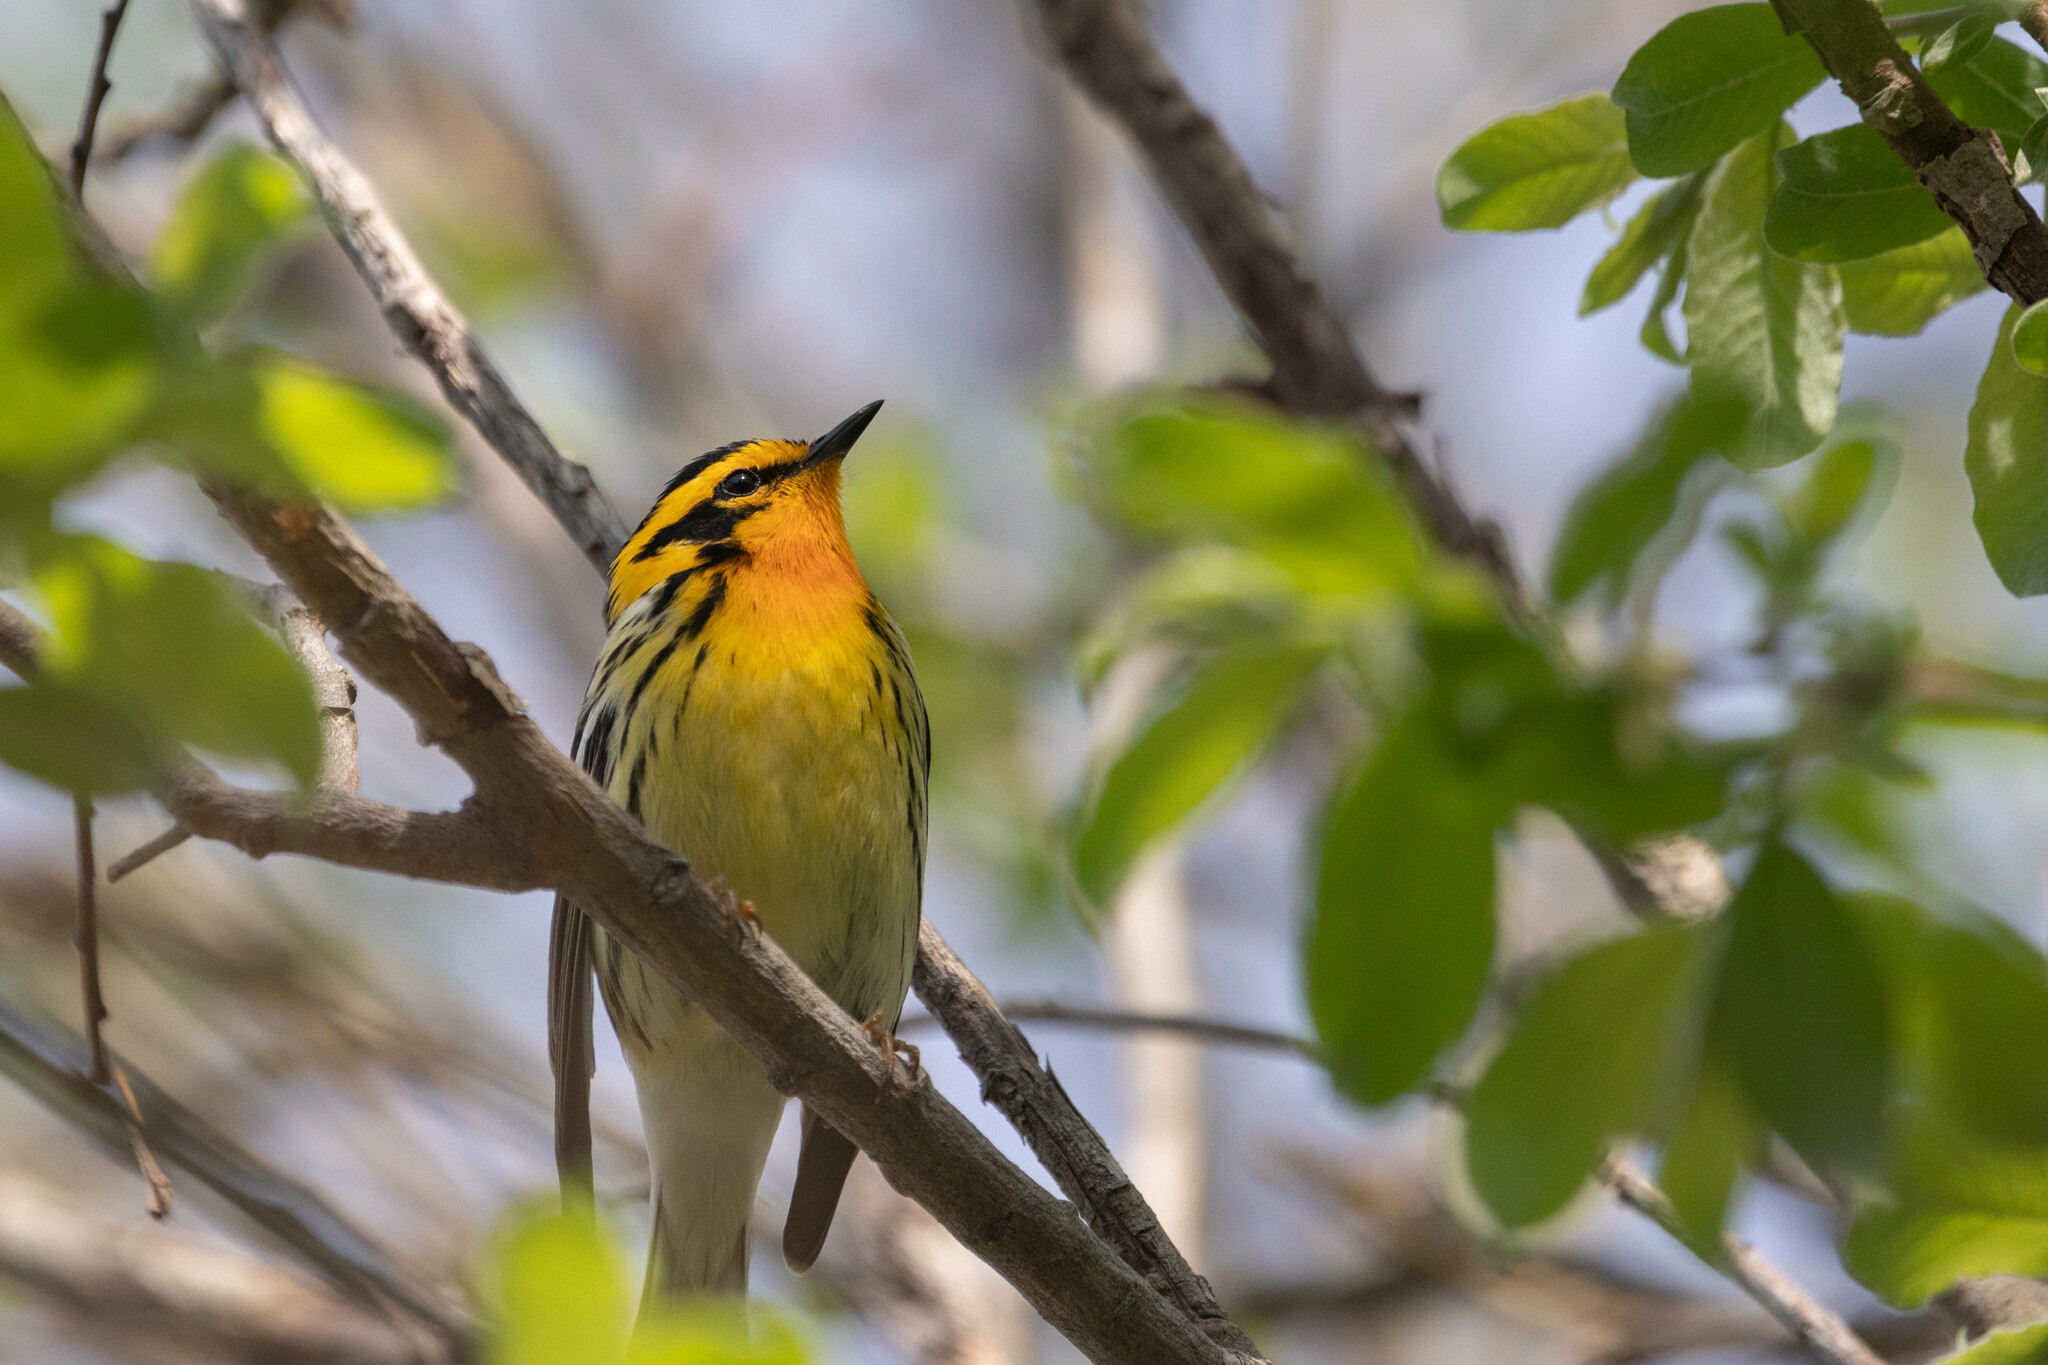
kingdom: Animalia
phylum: Chordata
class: Aves
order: Passeriformes
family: Parulidae
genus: Setophaga
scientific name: Setophaga fusca
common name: Blackburnian warbler
